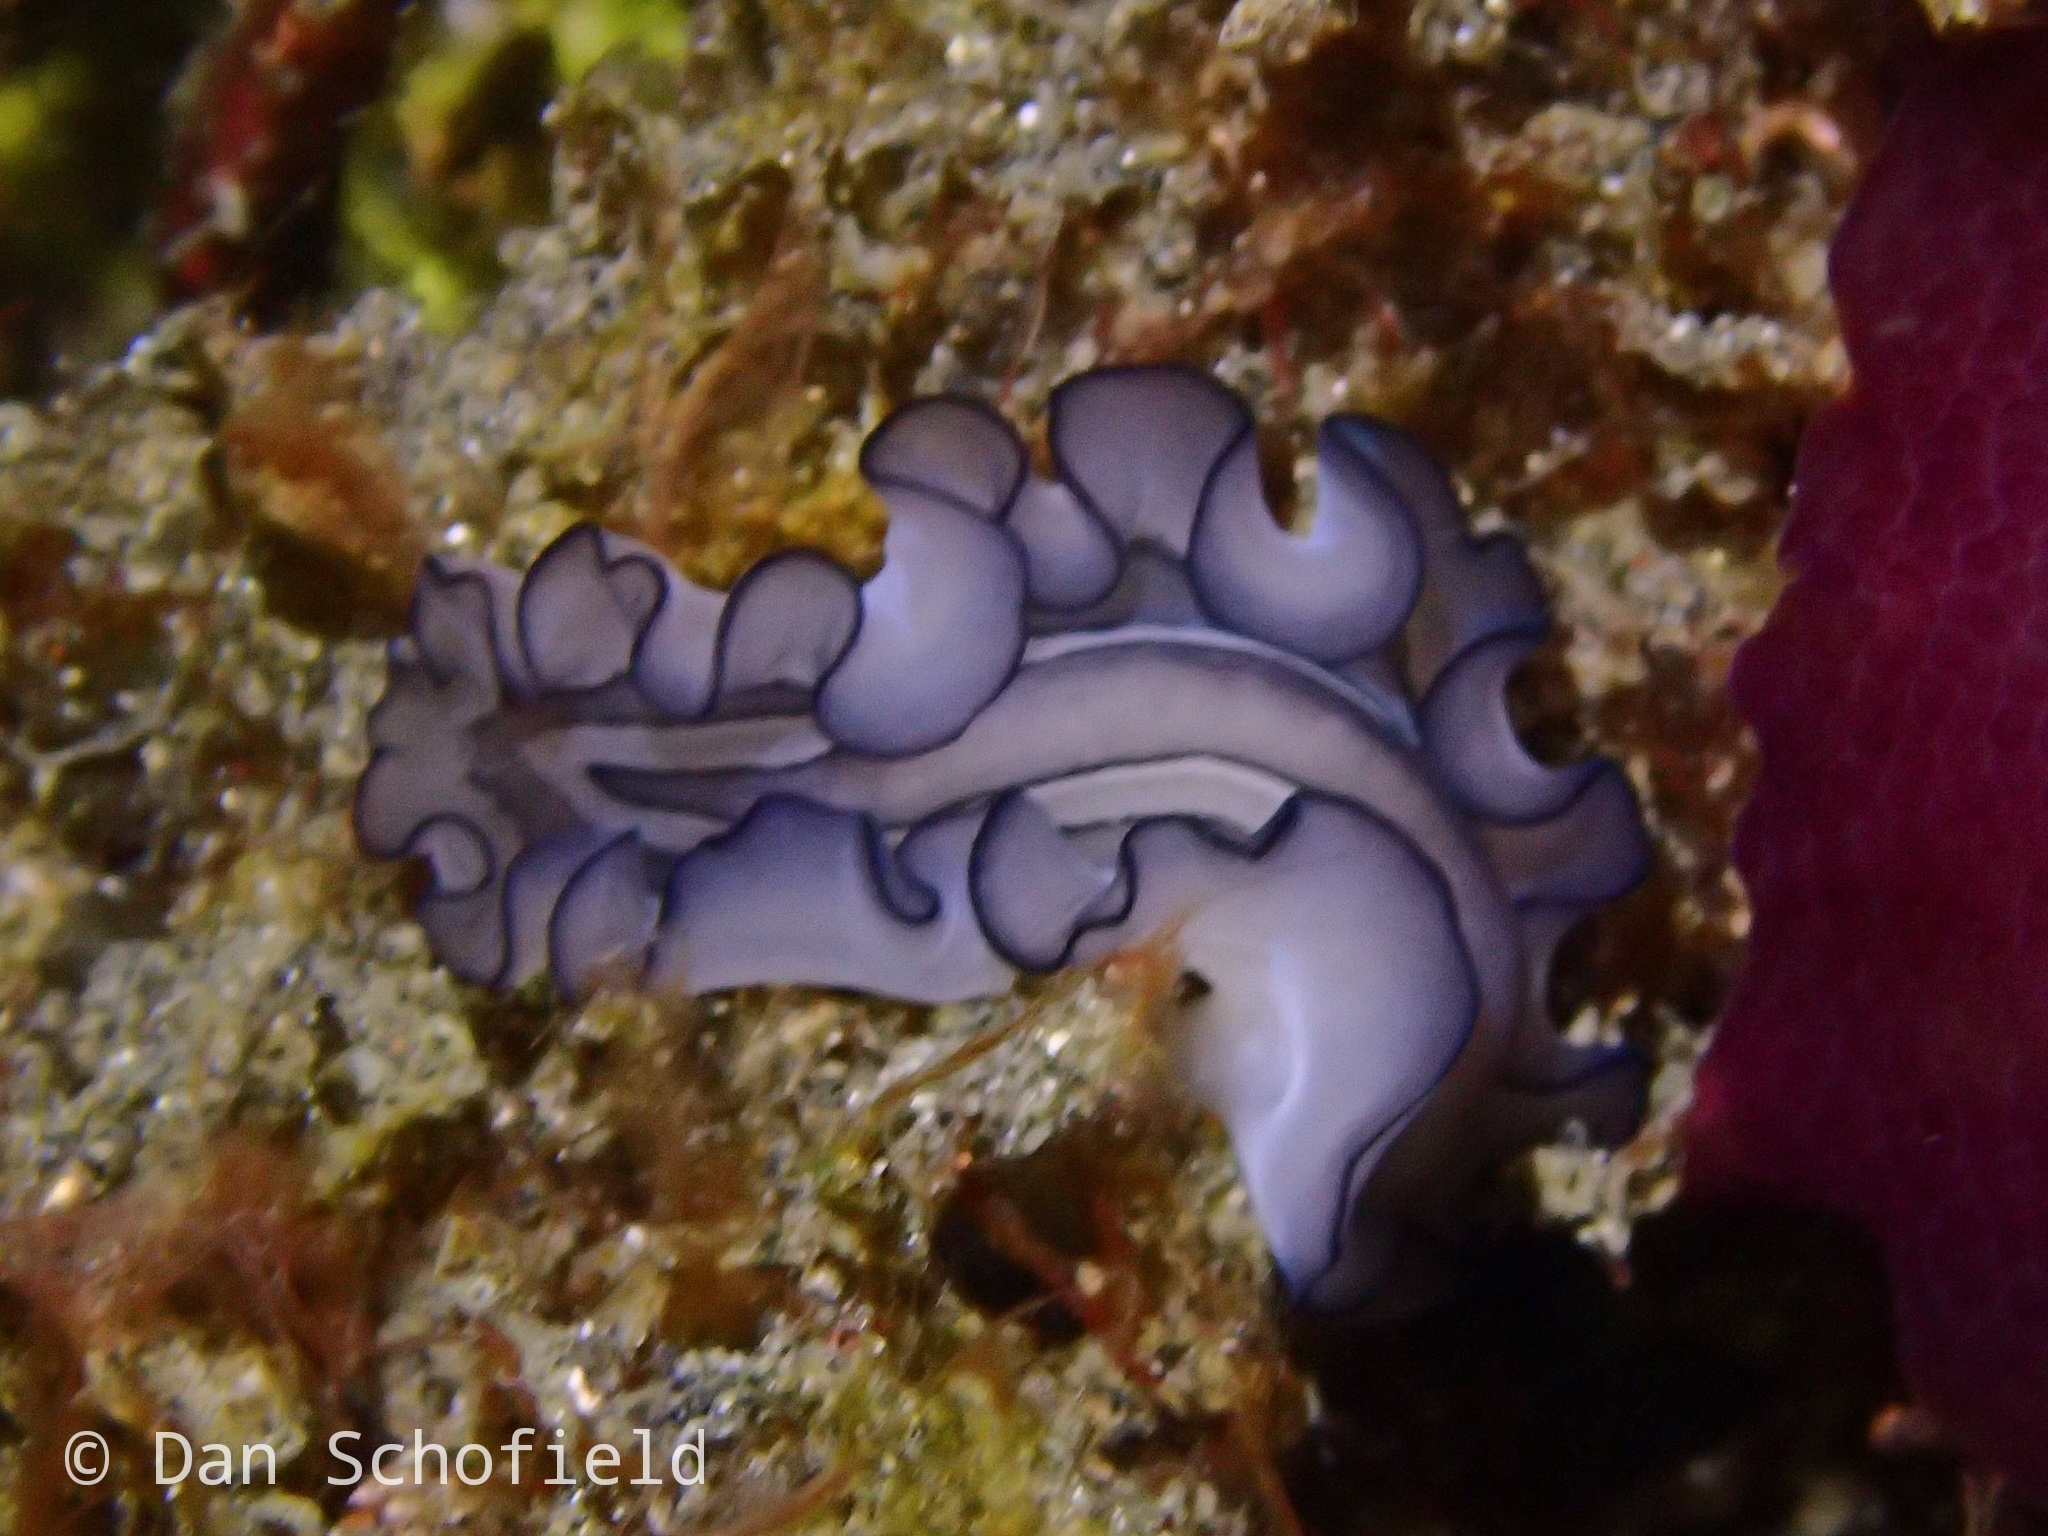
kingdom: Animalia
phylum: Platyhelminthes
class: Turbellaria
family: Pseudocerotidae
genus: Pseudobiceros
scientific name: Pseudobiceros gratus
